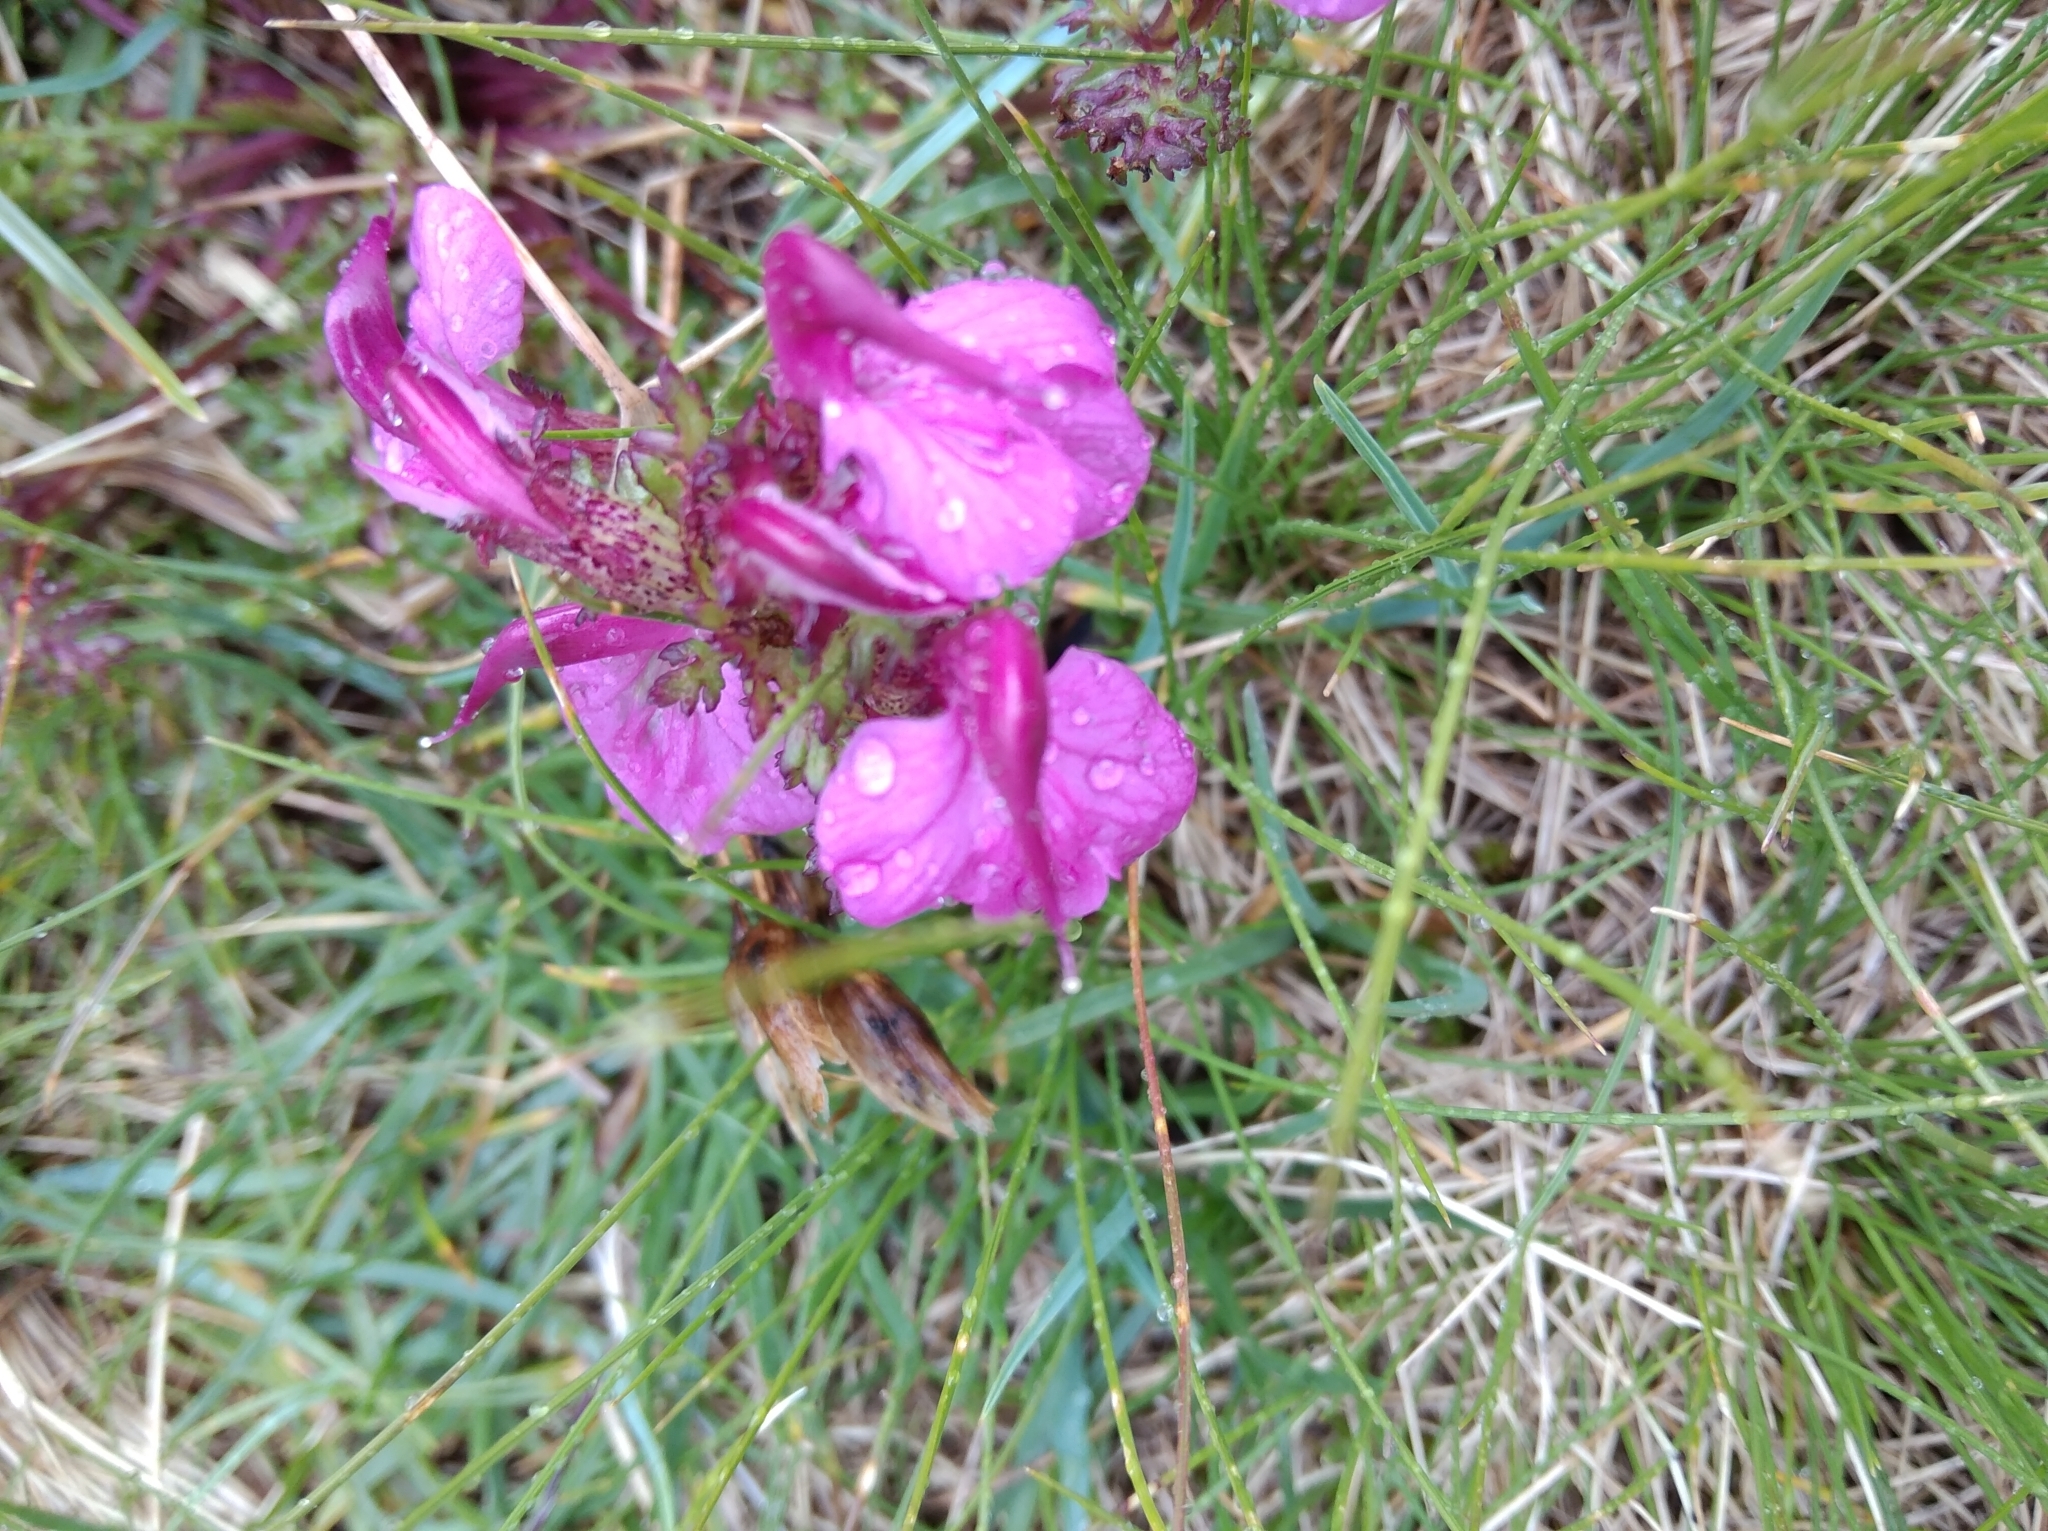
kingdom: Plantae
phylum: Tracheophyta
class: Magnoliopsida
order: Lamiales
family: Orobanchaceae
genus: Pedicularis
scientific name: Pedicularis kerneri
